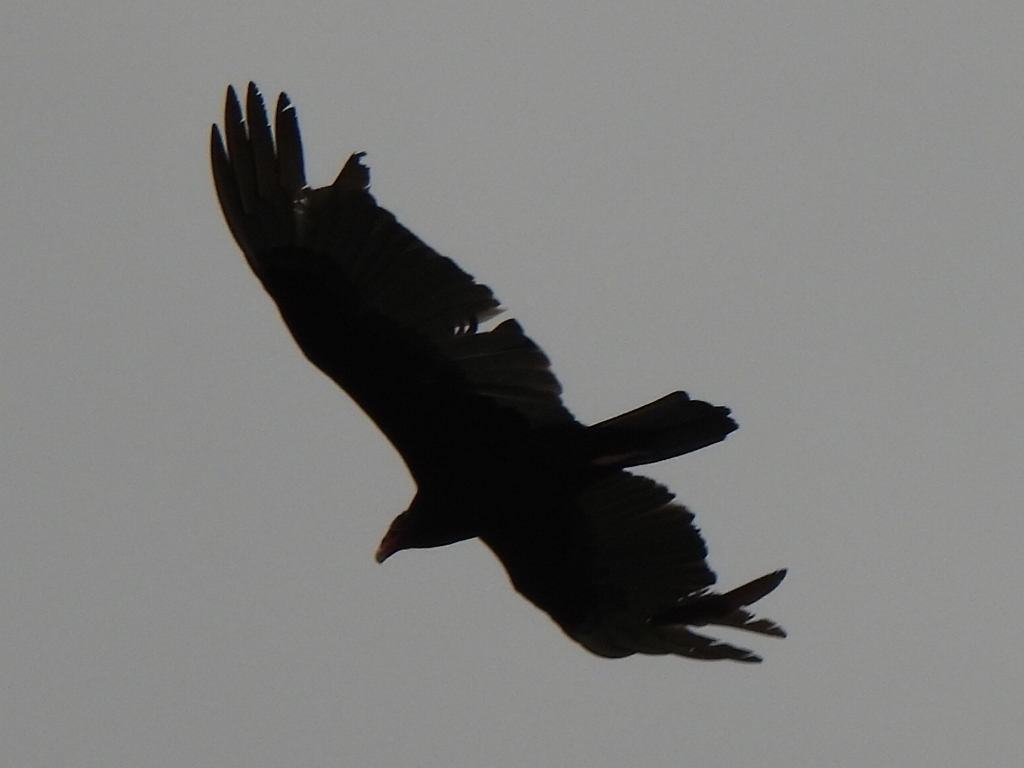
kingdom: Animalia
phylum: Chordata
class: Aves
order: Accipitriformes
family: Cathartidae
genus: Cathartes
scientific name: Cathartes aura
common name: Turkey vulture
